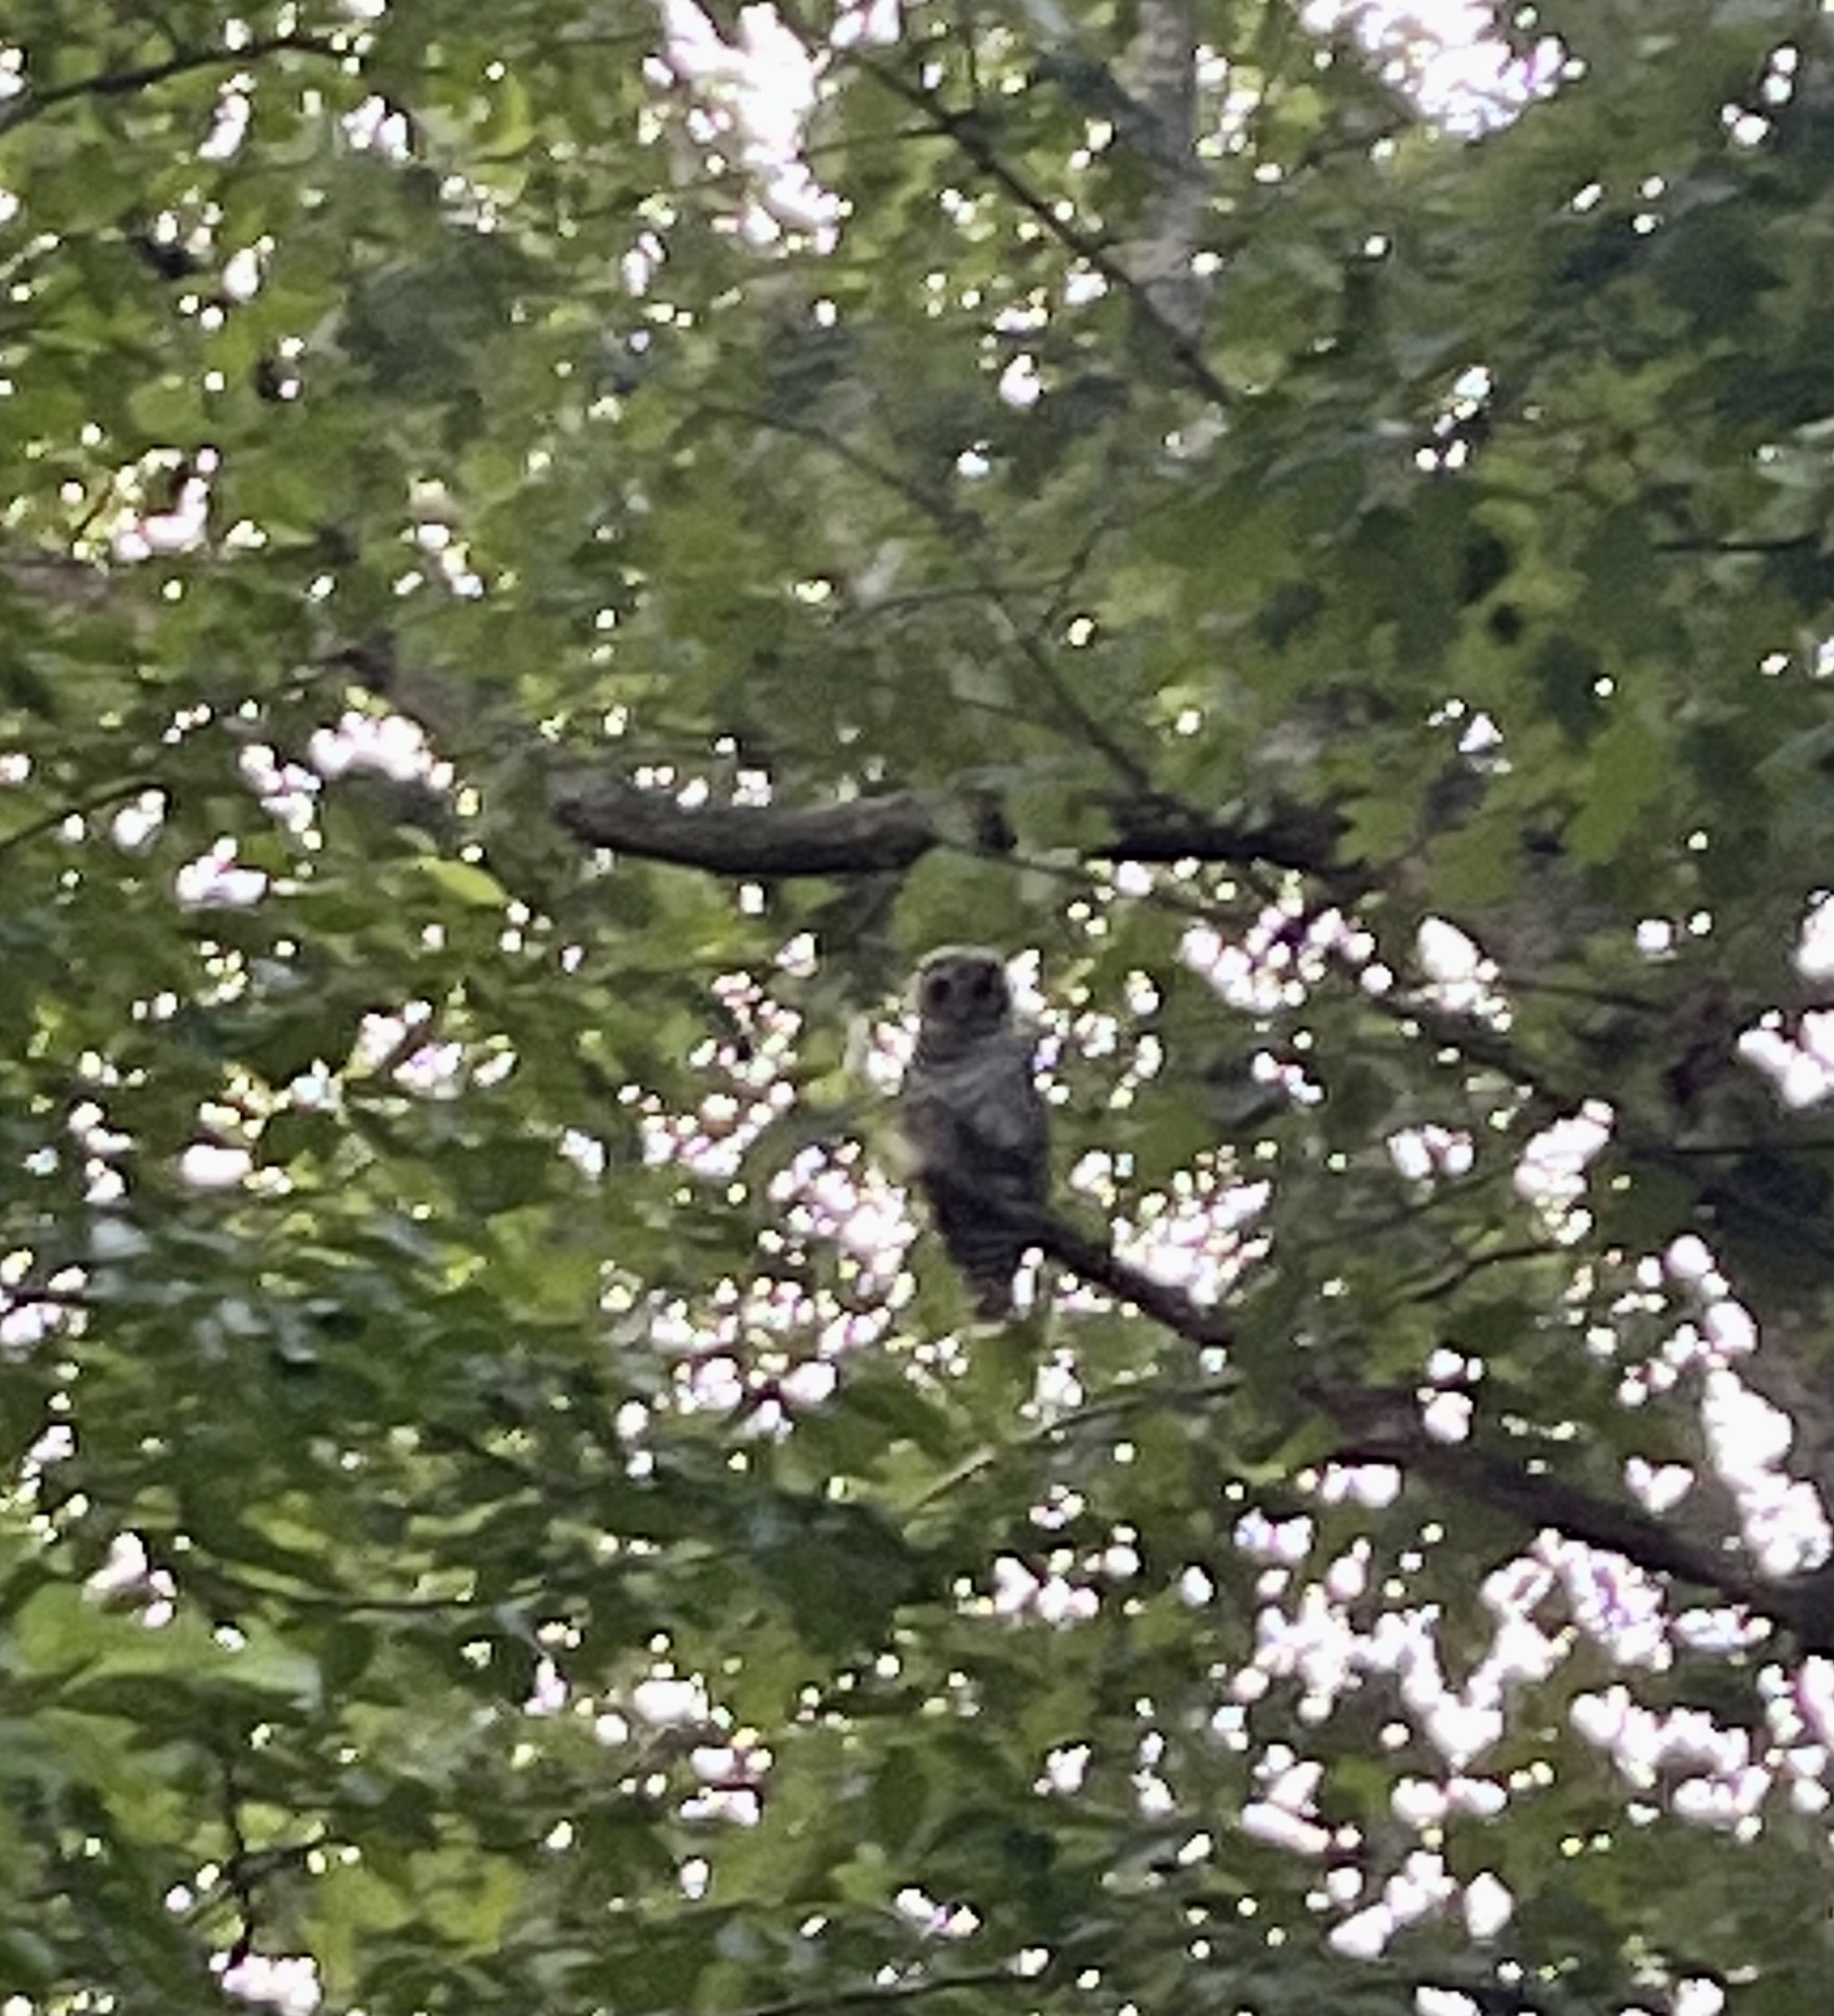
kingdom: Animalia
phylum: Chordata
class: Aves
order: Strigiformes
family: Strigidae
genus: Strix
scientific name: Strix varia
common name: Barred owl
